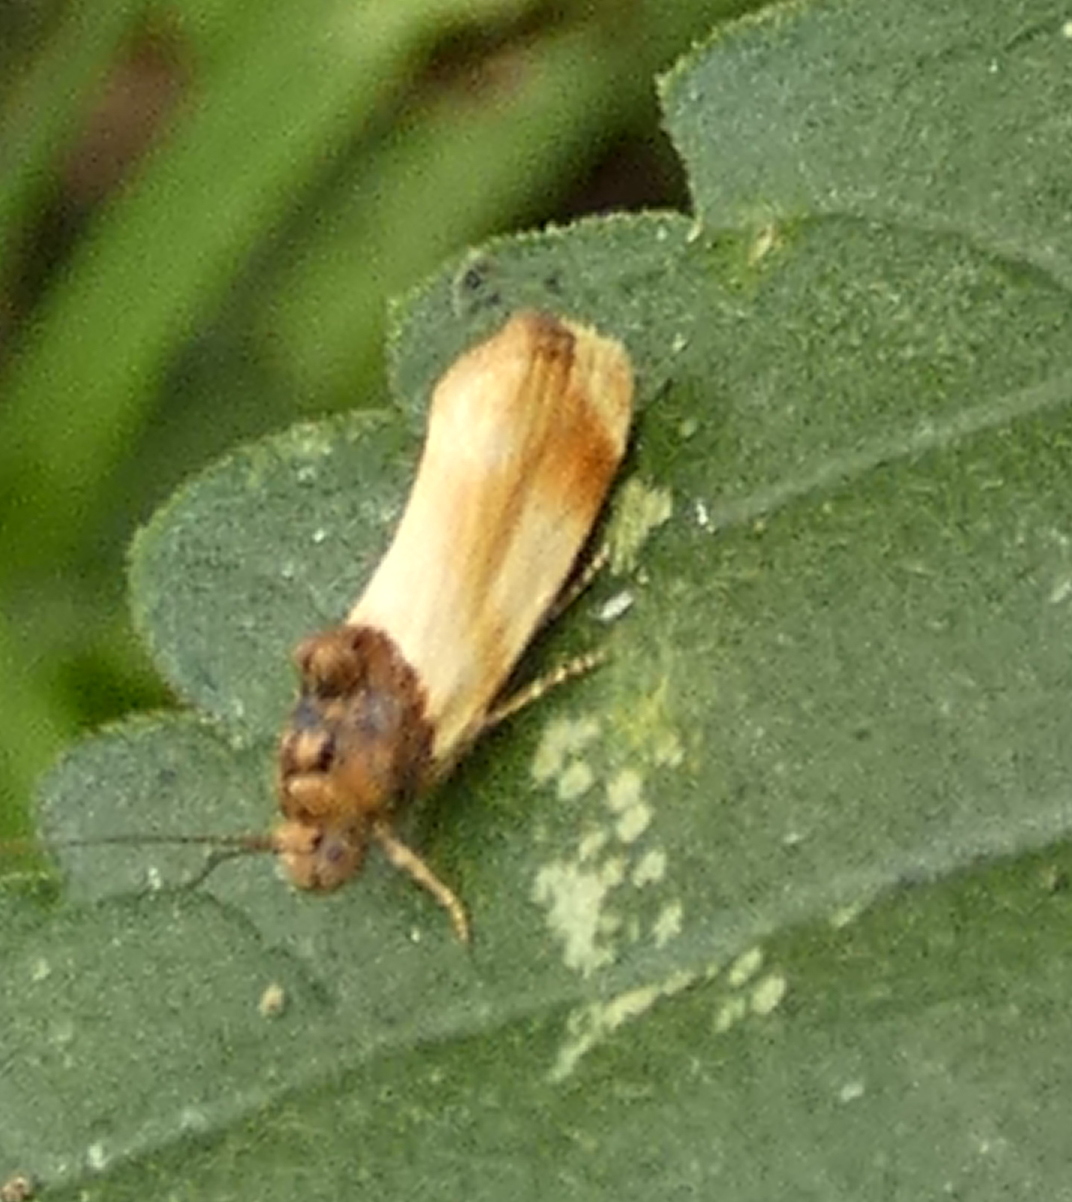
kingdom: Animalia
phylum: Arthropoda
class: Insecta
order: Lepidoptera
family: Noctuidae
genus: Spragueia
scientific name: Spragueia apicalis
